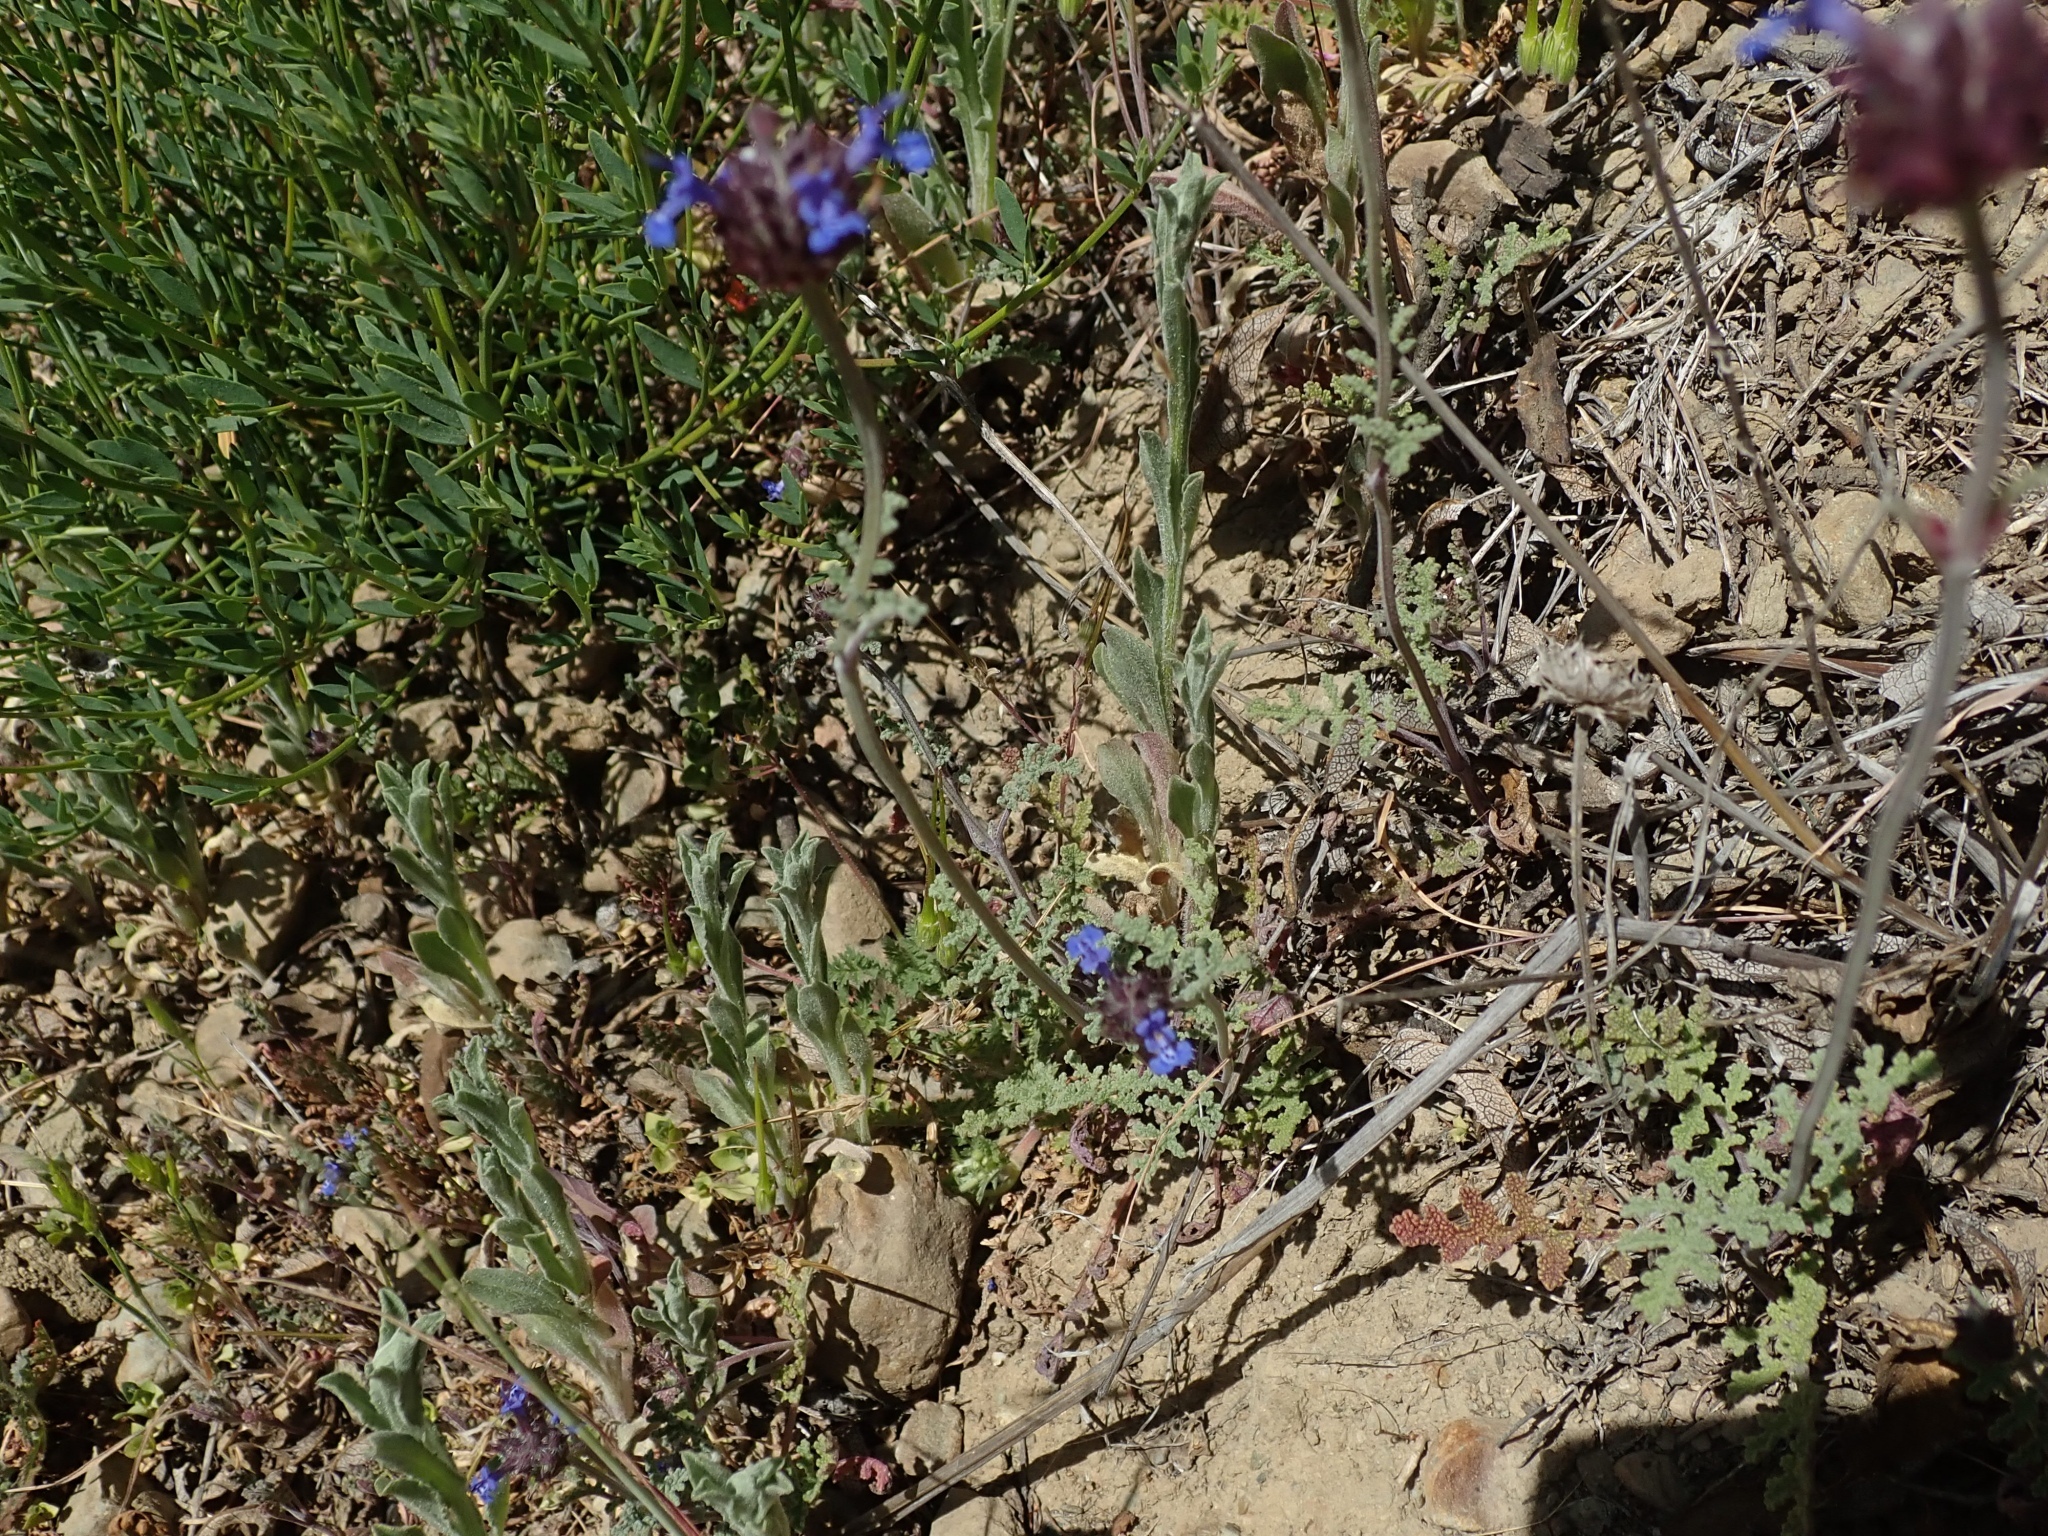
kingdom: Plantae
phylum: Tracheophyta
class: Magnoliopsida
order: Lamiales
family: Lamiaceae
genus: Salvia
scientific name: Salvia columbariae
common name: Chia
